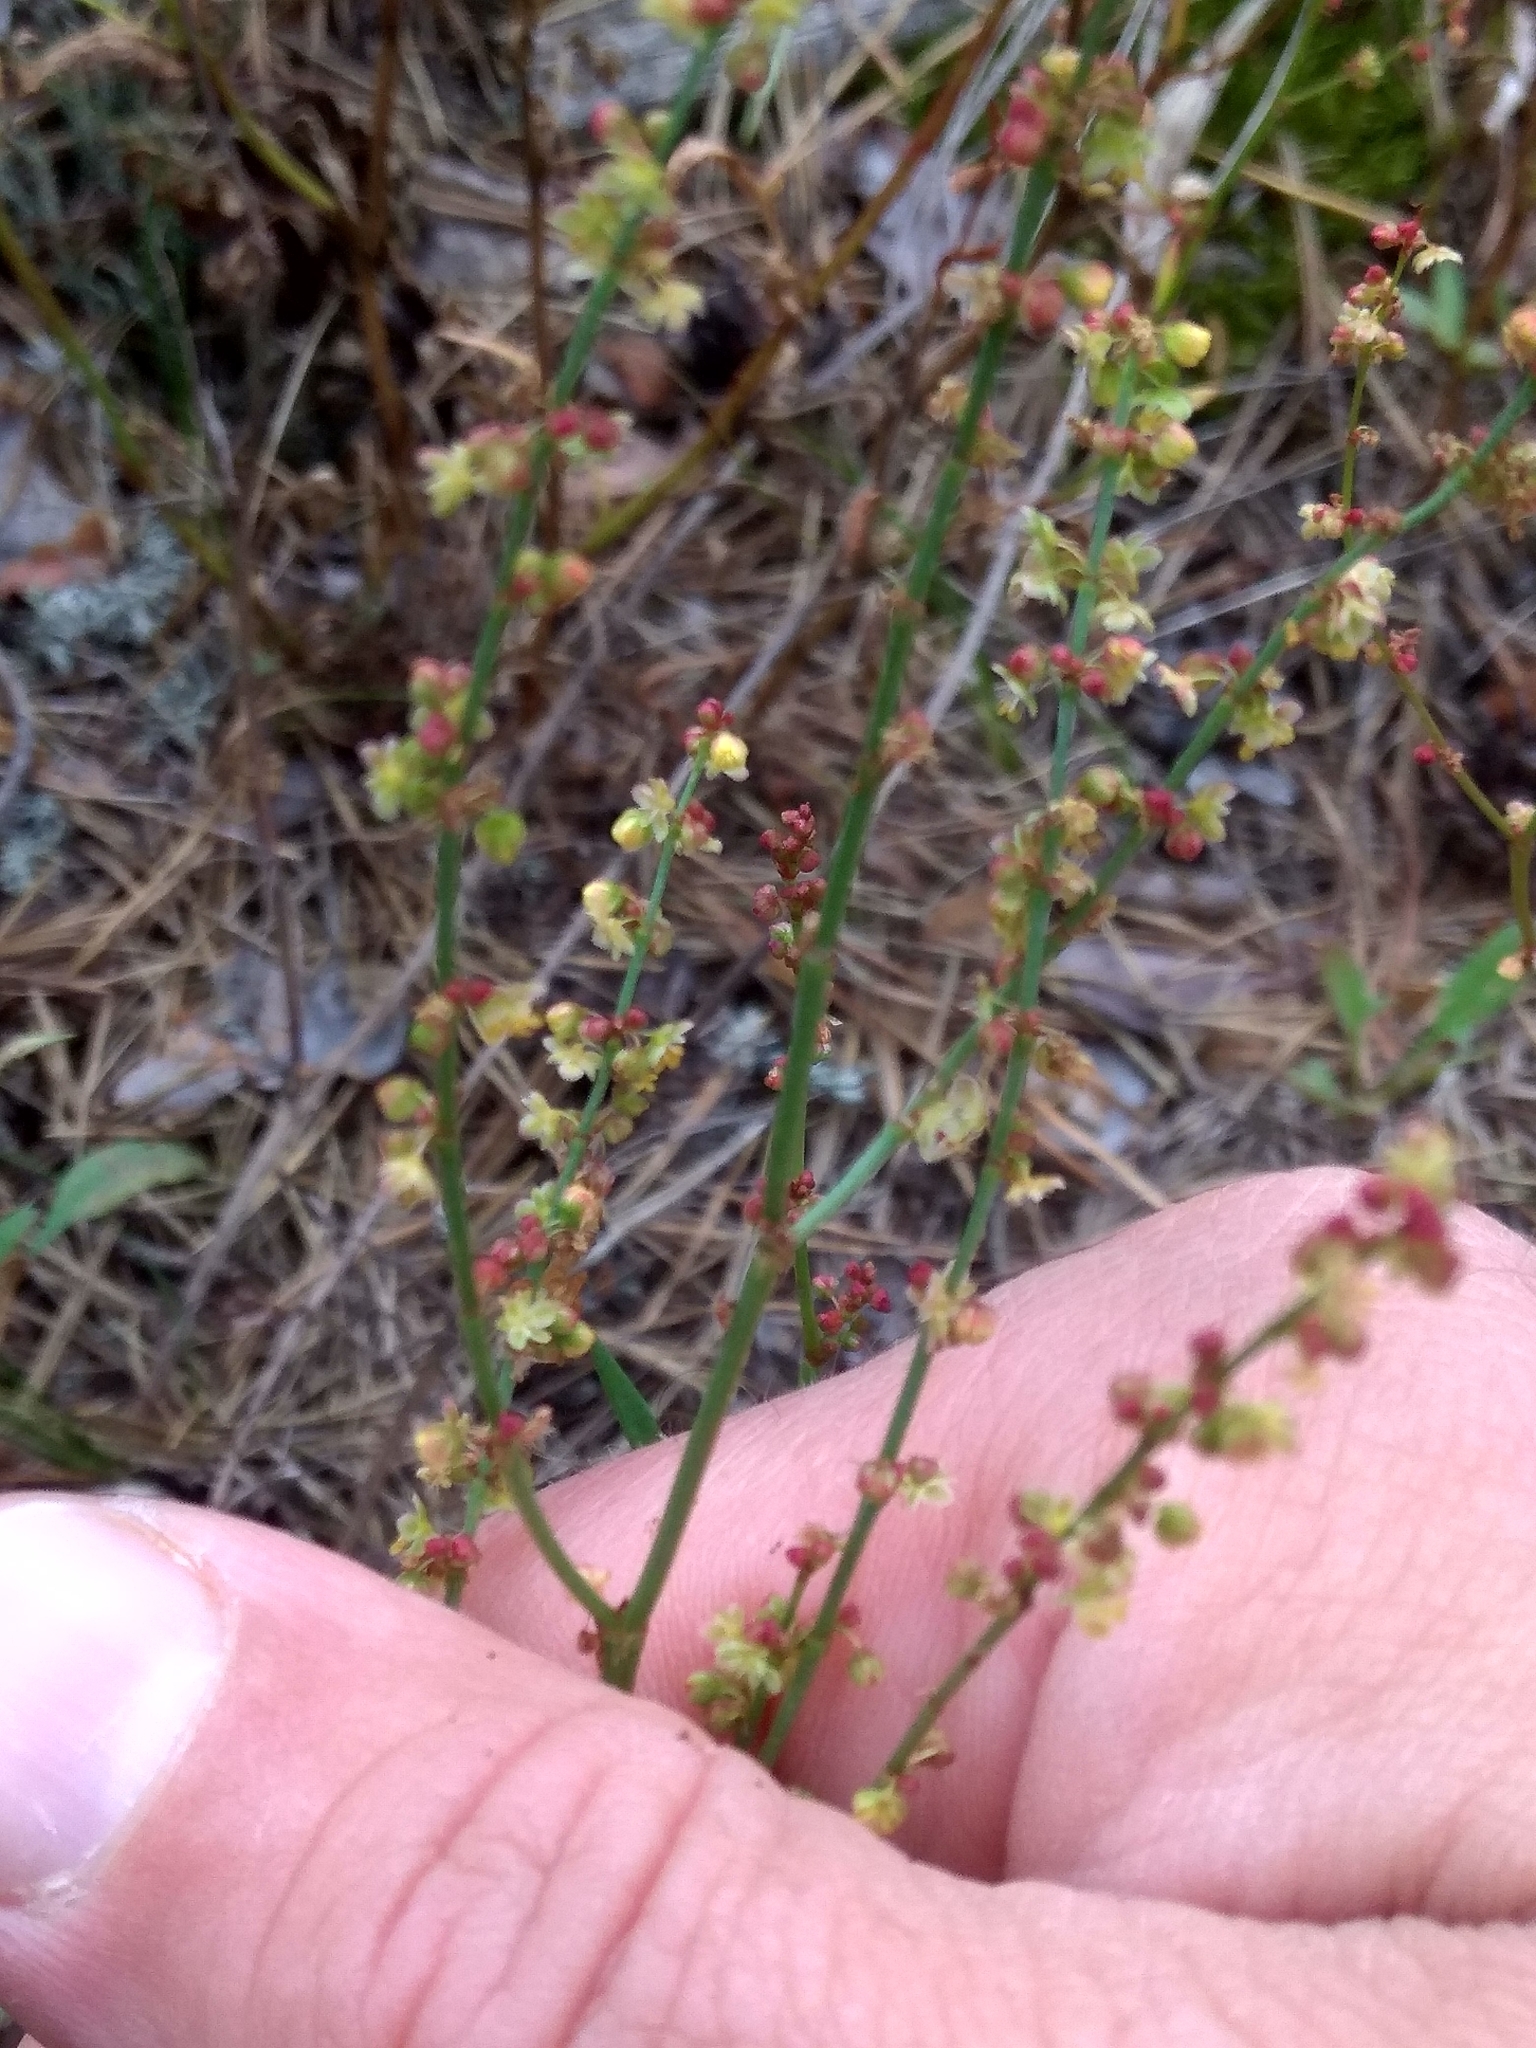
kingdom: Plantae
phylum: Tracheophyta
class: Magnoliopsida
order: Caryophyllales
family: Polygonaceae
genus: Rumex
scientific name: Rumex acetosella
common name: Common sheep sorrel
